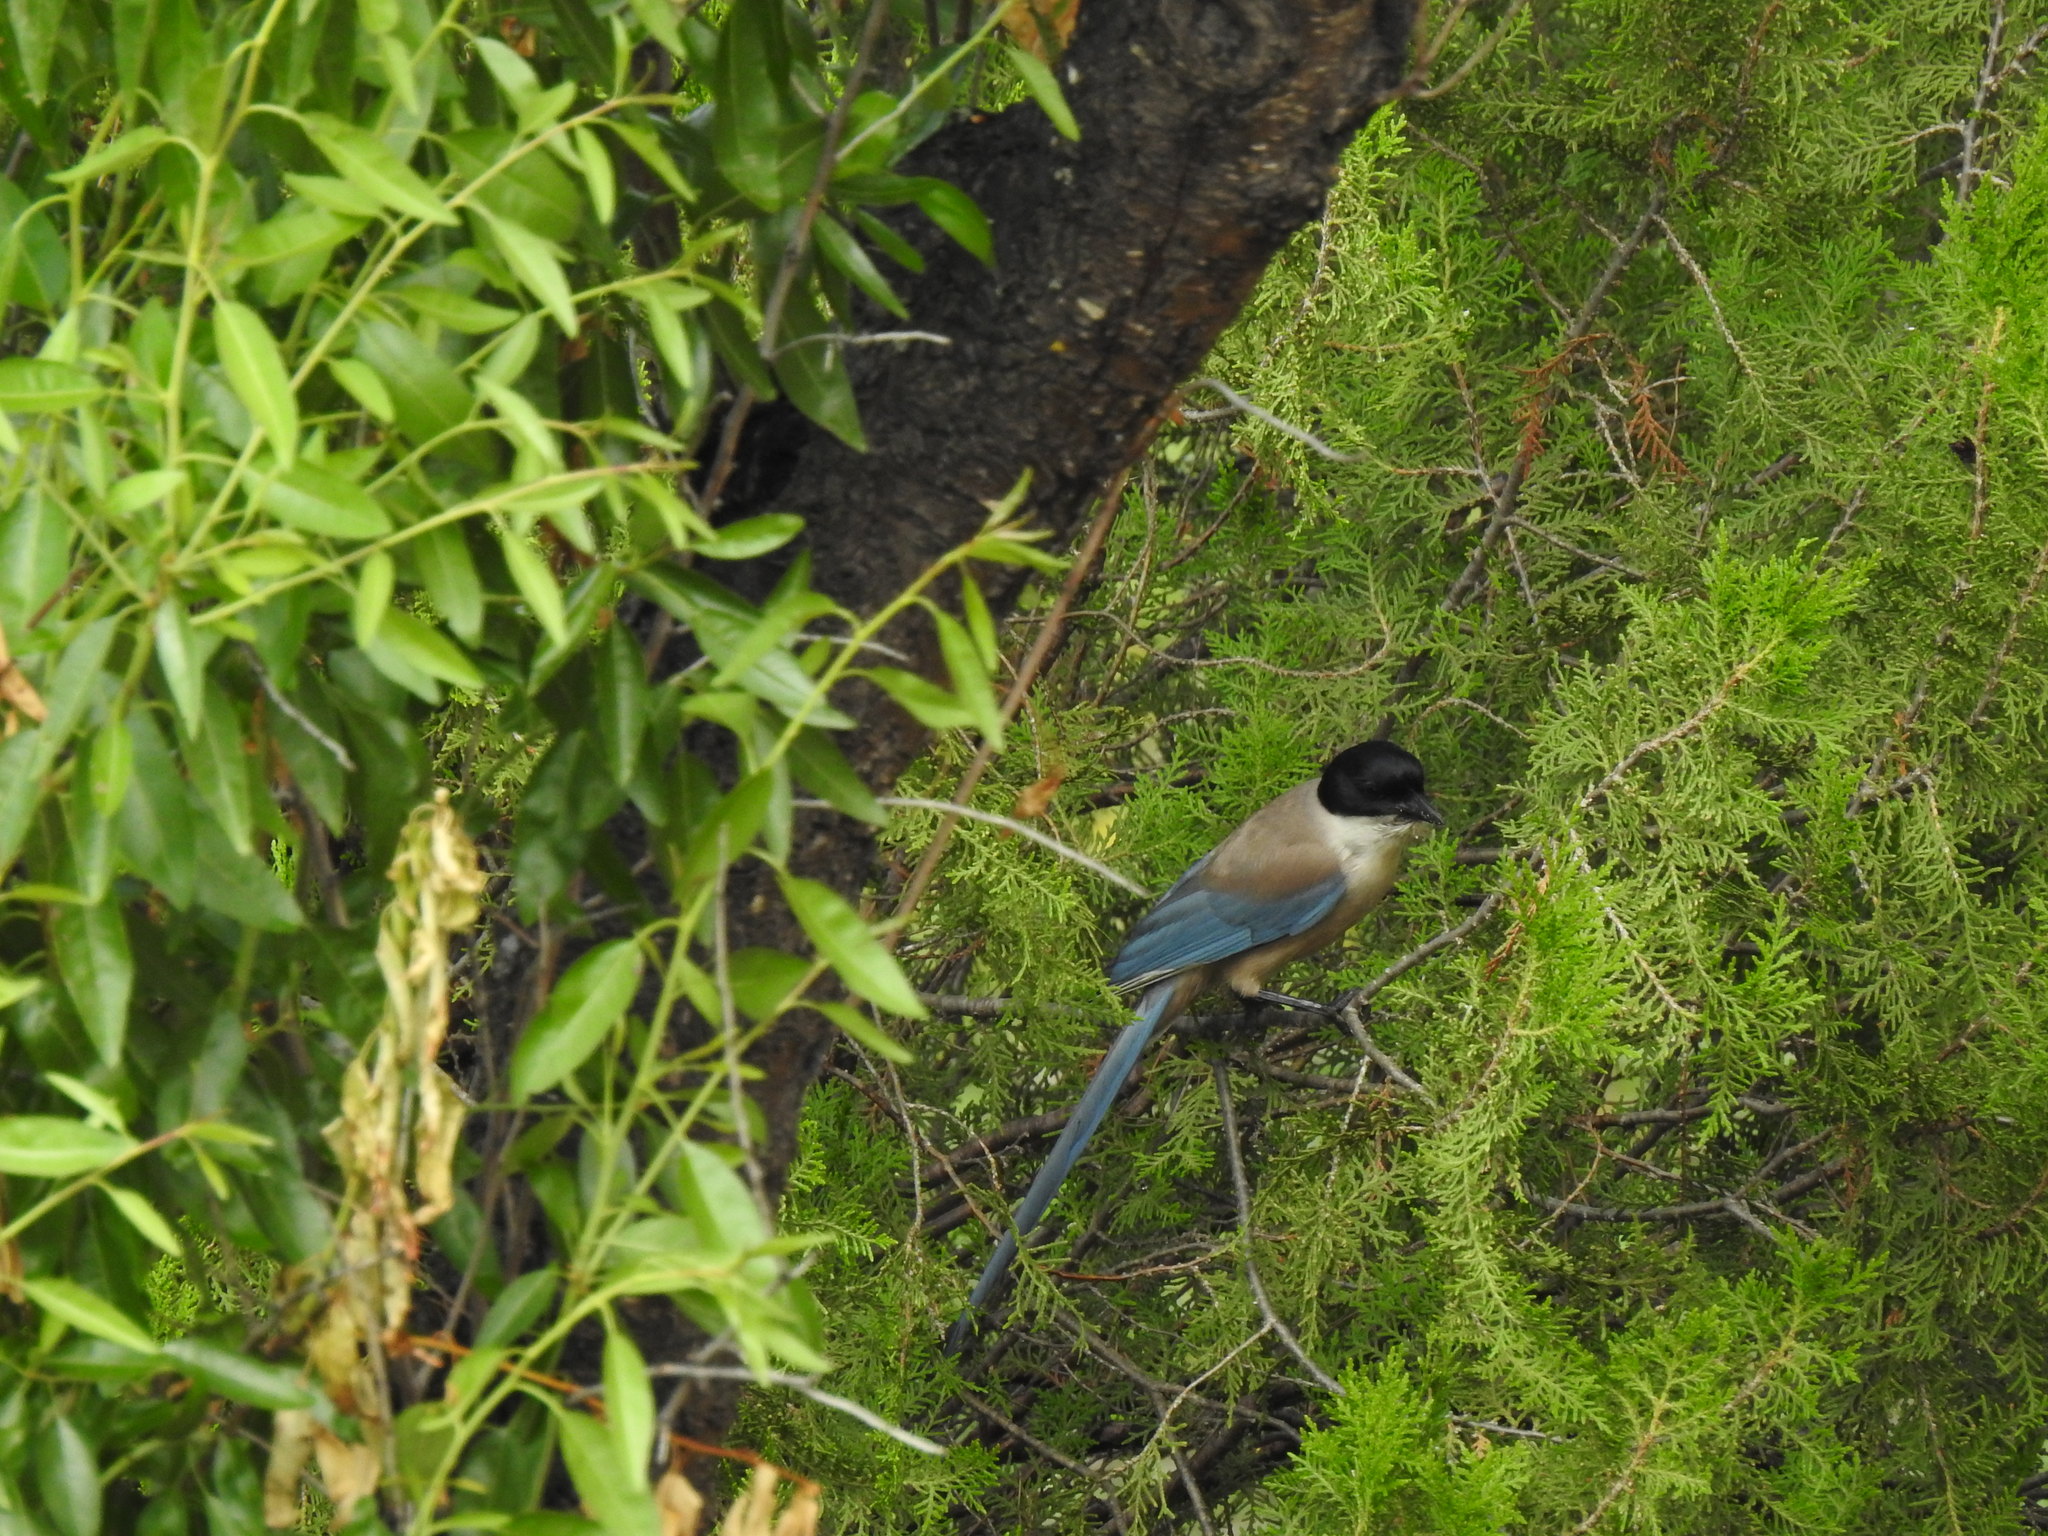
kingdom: Animalia
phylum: Chordata
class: Aves
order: Passeriformes
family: Corvidae
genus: Cyanopica
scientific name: Cyanopica cooki
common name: Iberian magpie
